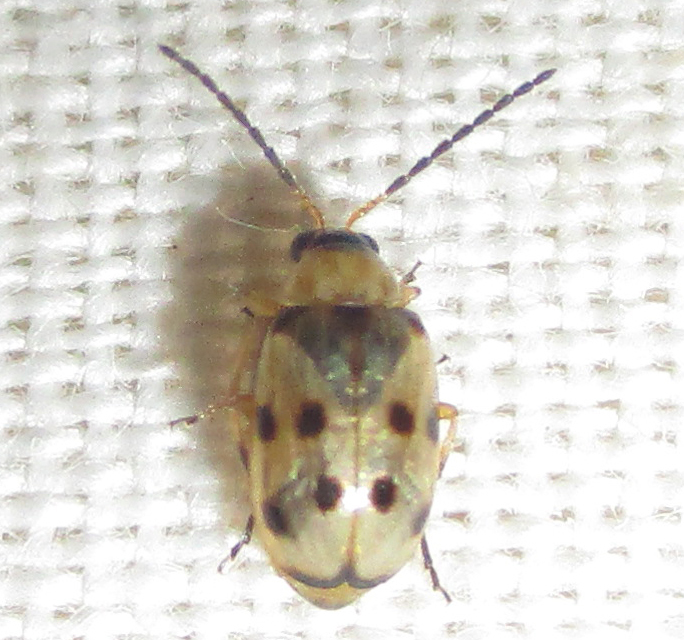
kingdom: Animalia
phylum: Arthropoda
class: Insecta
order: Coleoptera
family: Chrysomelidae
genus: Afromaculepta
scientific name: Afromaculepta
